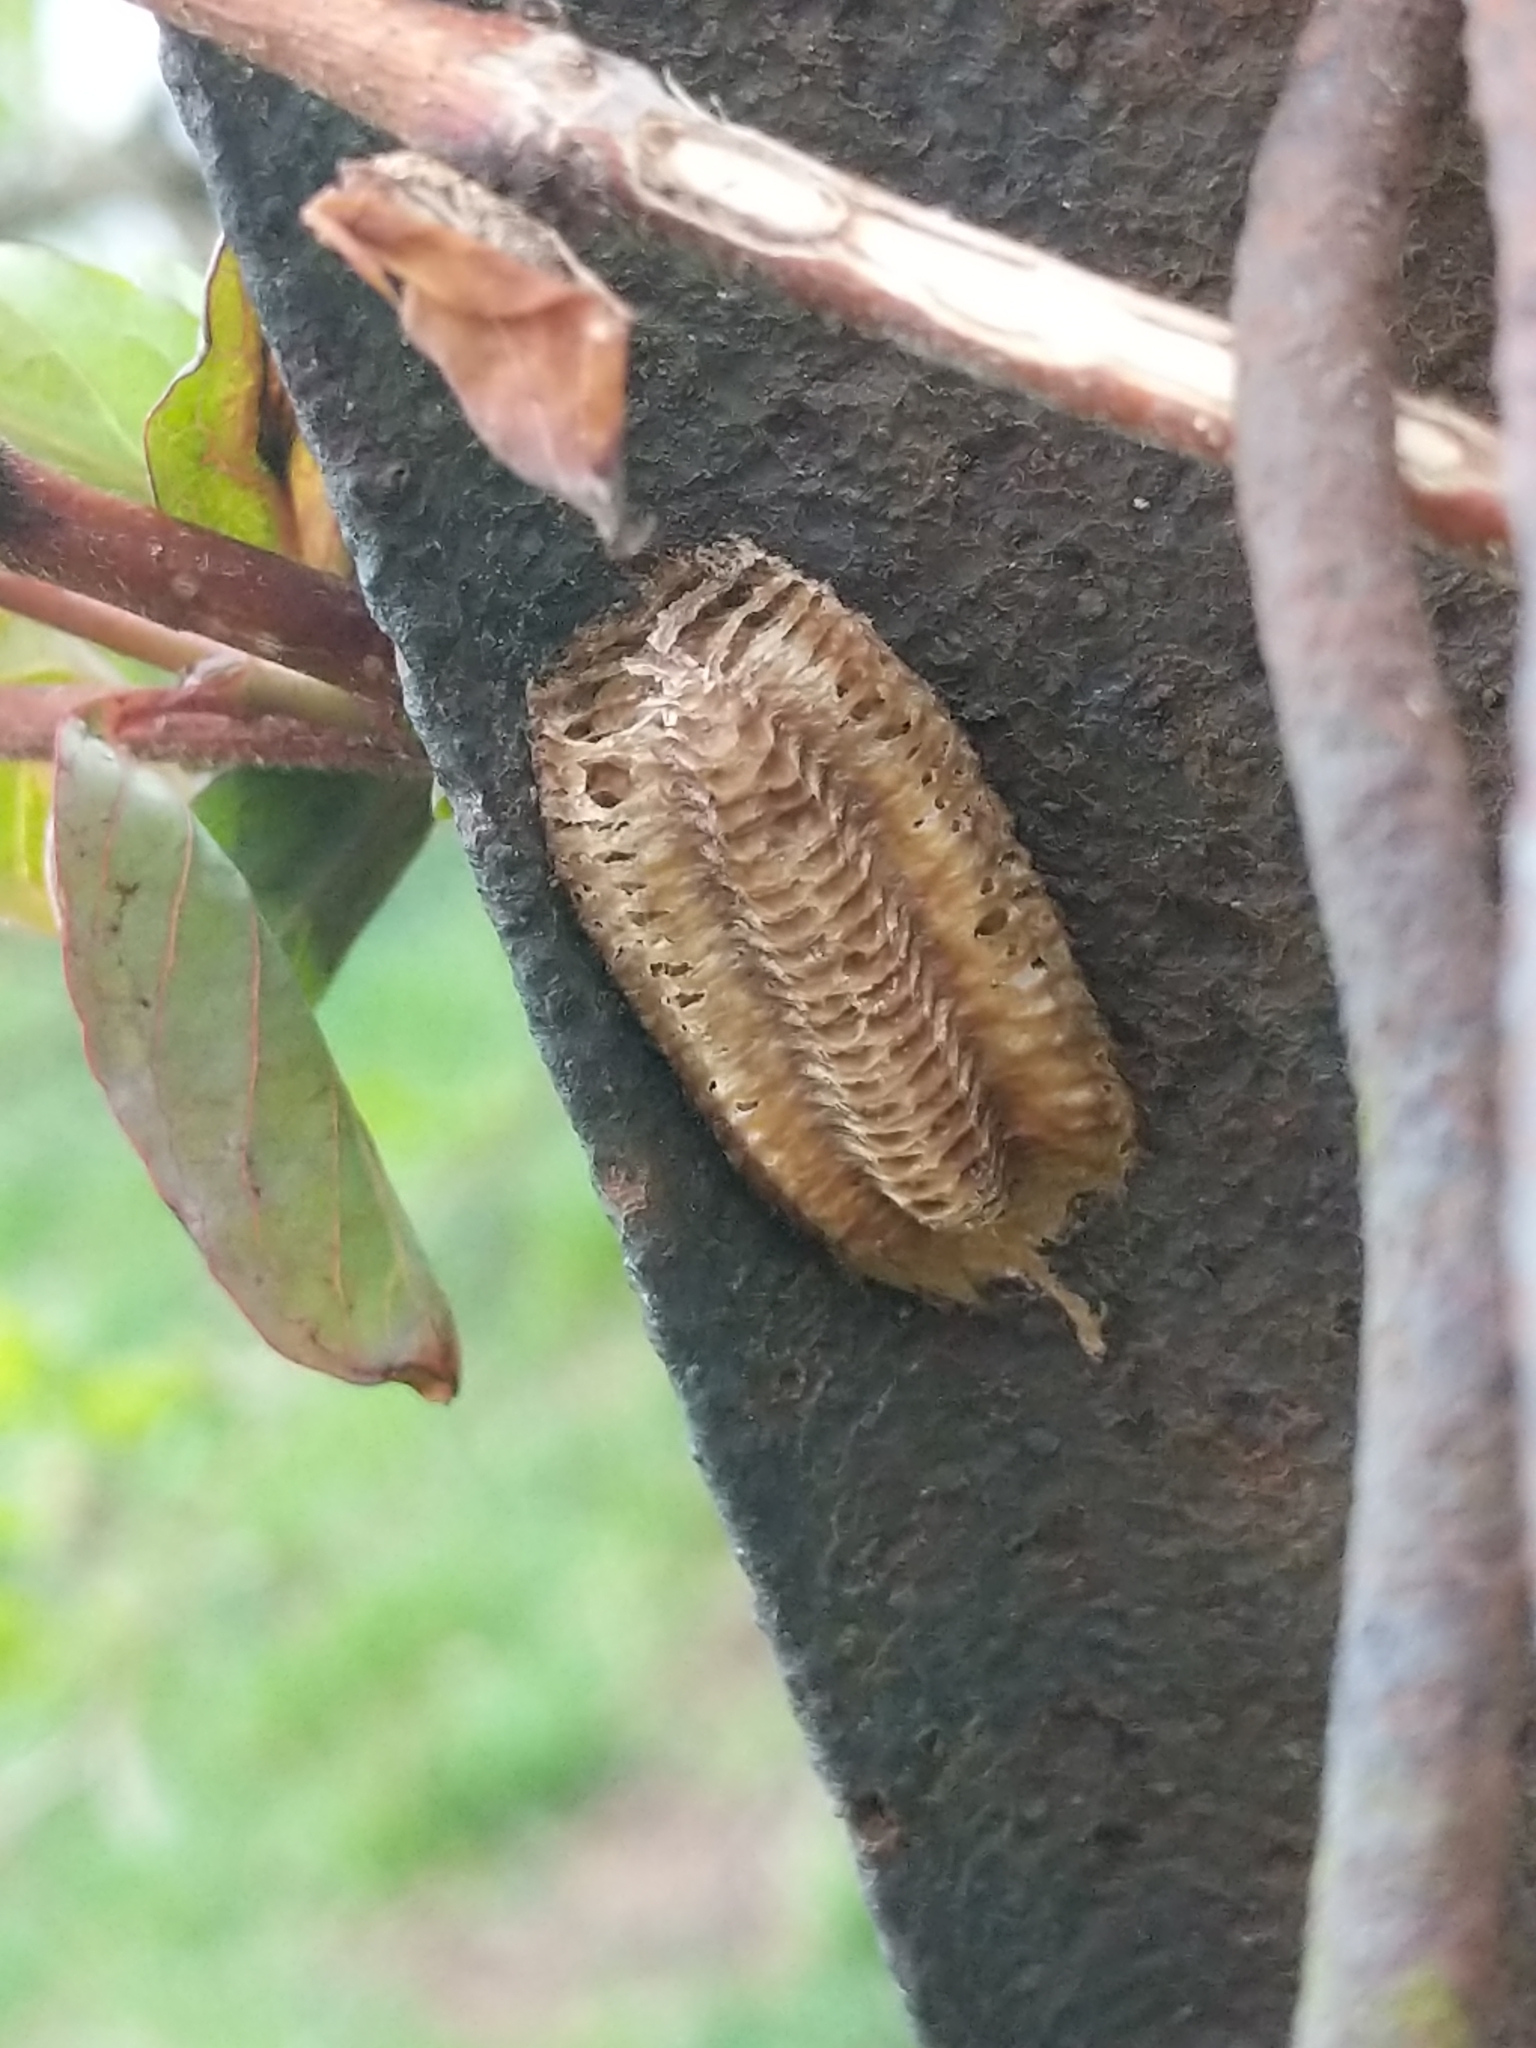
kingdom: Animalia
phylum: Arthropoda
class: Insecta
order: Mantodea
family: Mantidae
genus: Stagmomantis
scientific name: Stagmomantis carolina
